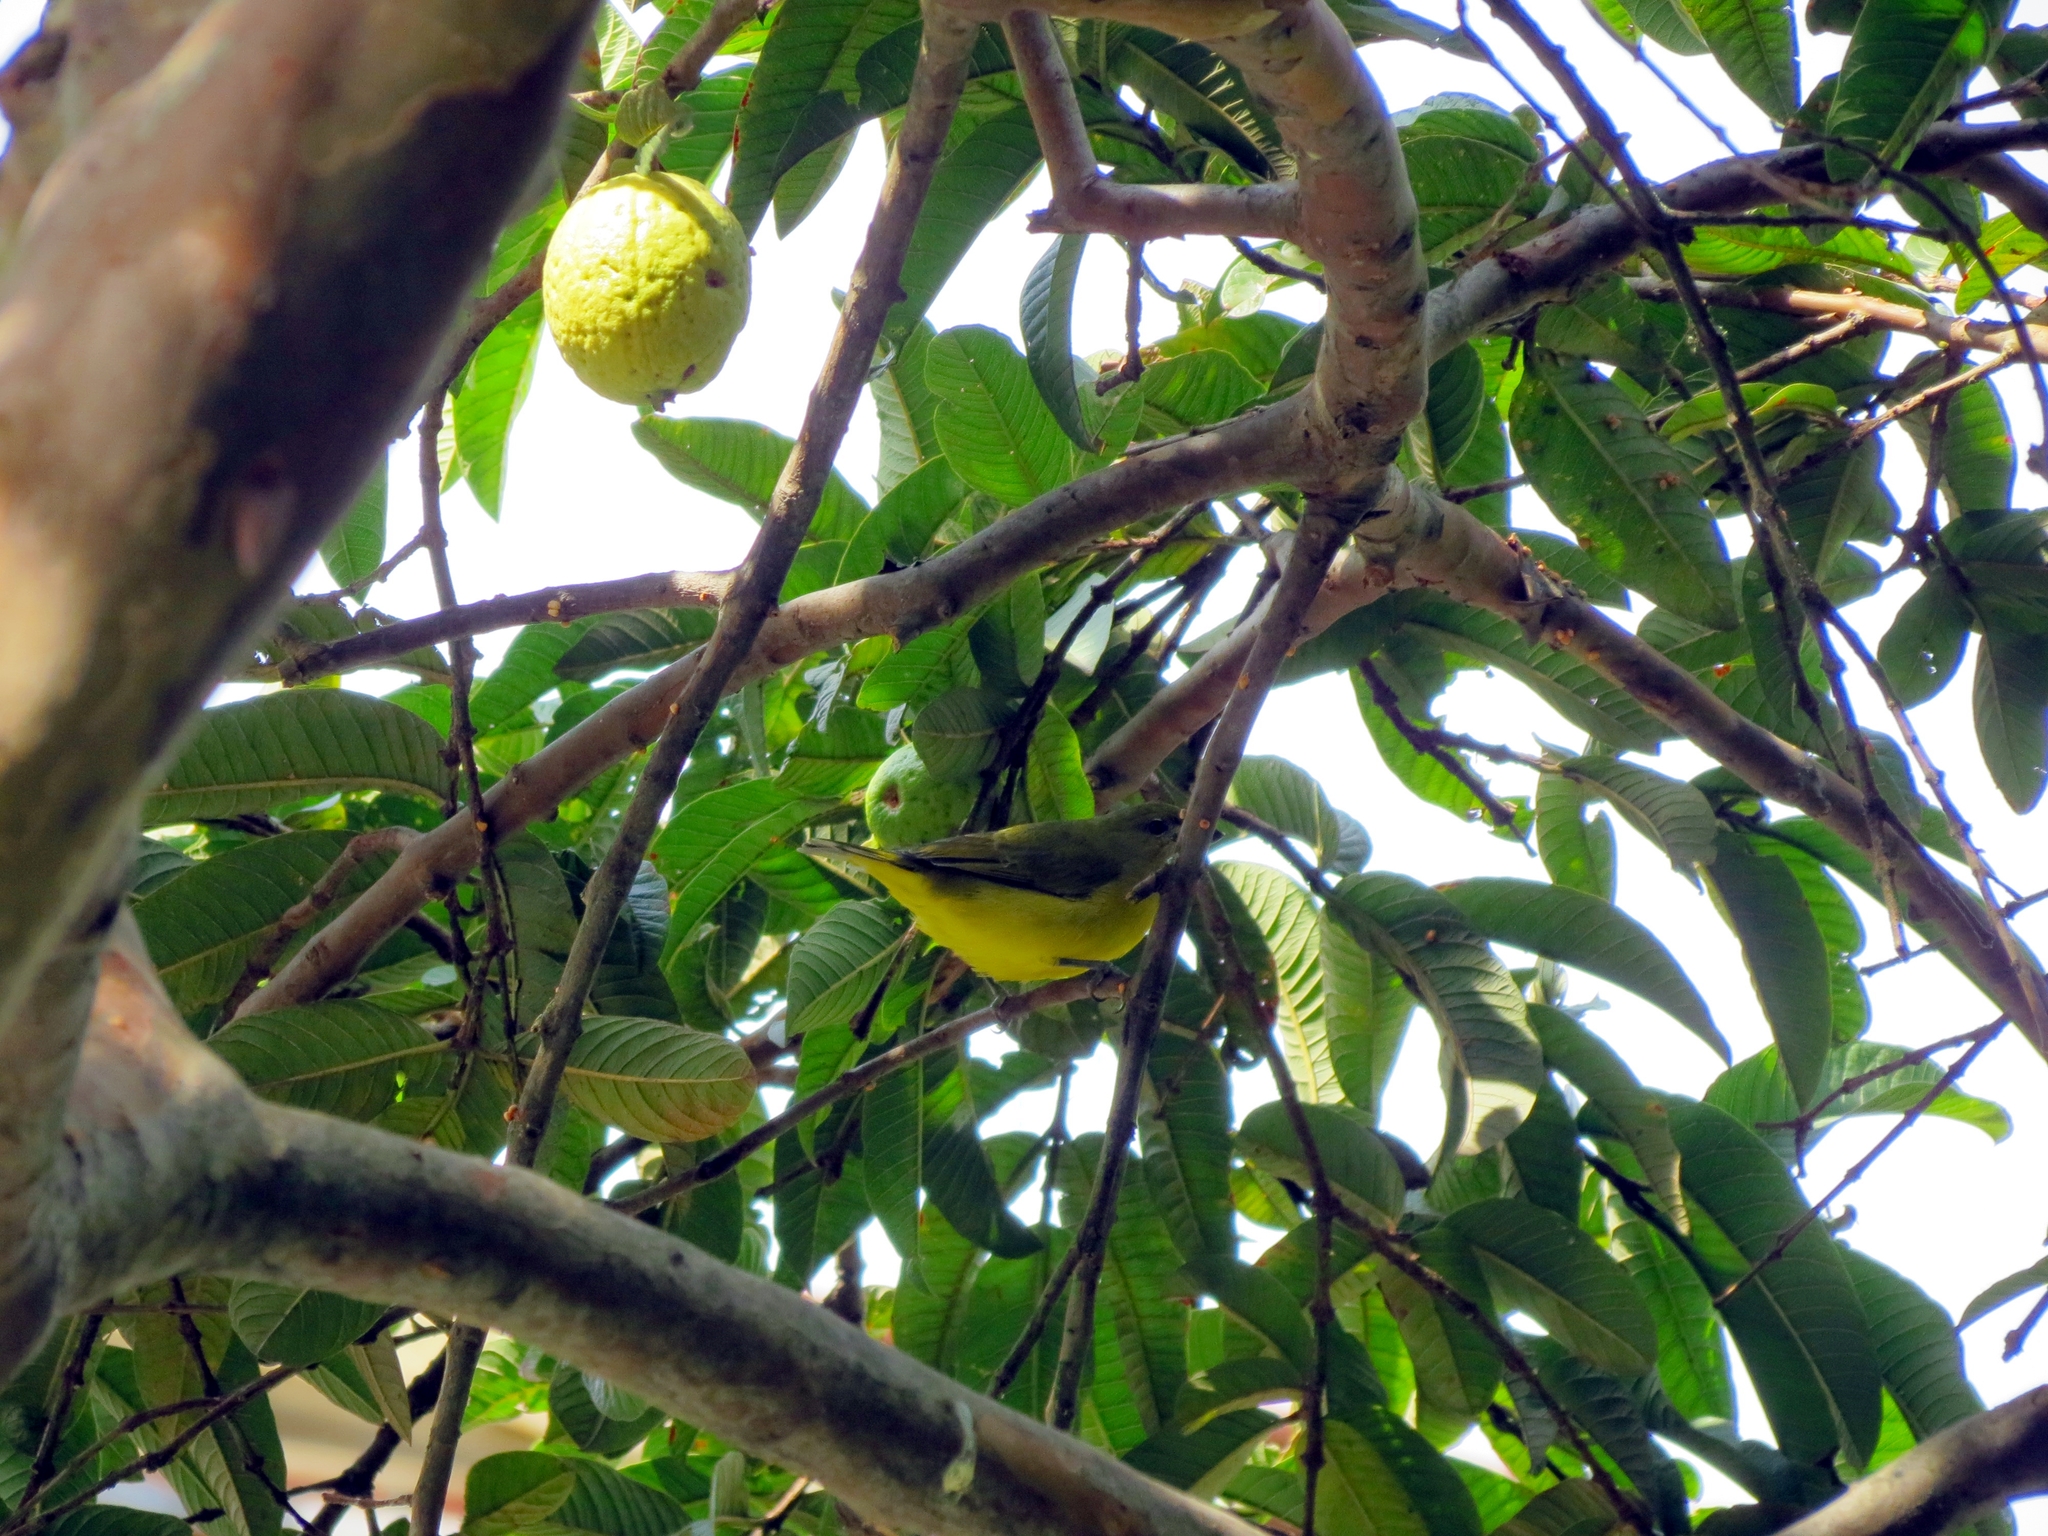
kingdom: Animalia
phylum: Chordata
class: Aves
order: Passeriformes
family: Fringillidae
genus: Euphonia
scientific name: Euphonia laniirostris
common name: Thick-billed euphonia
